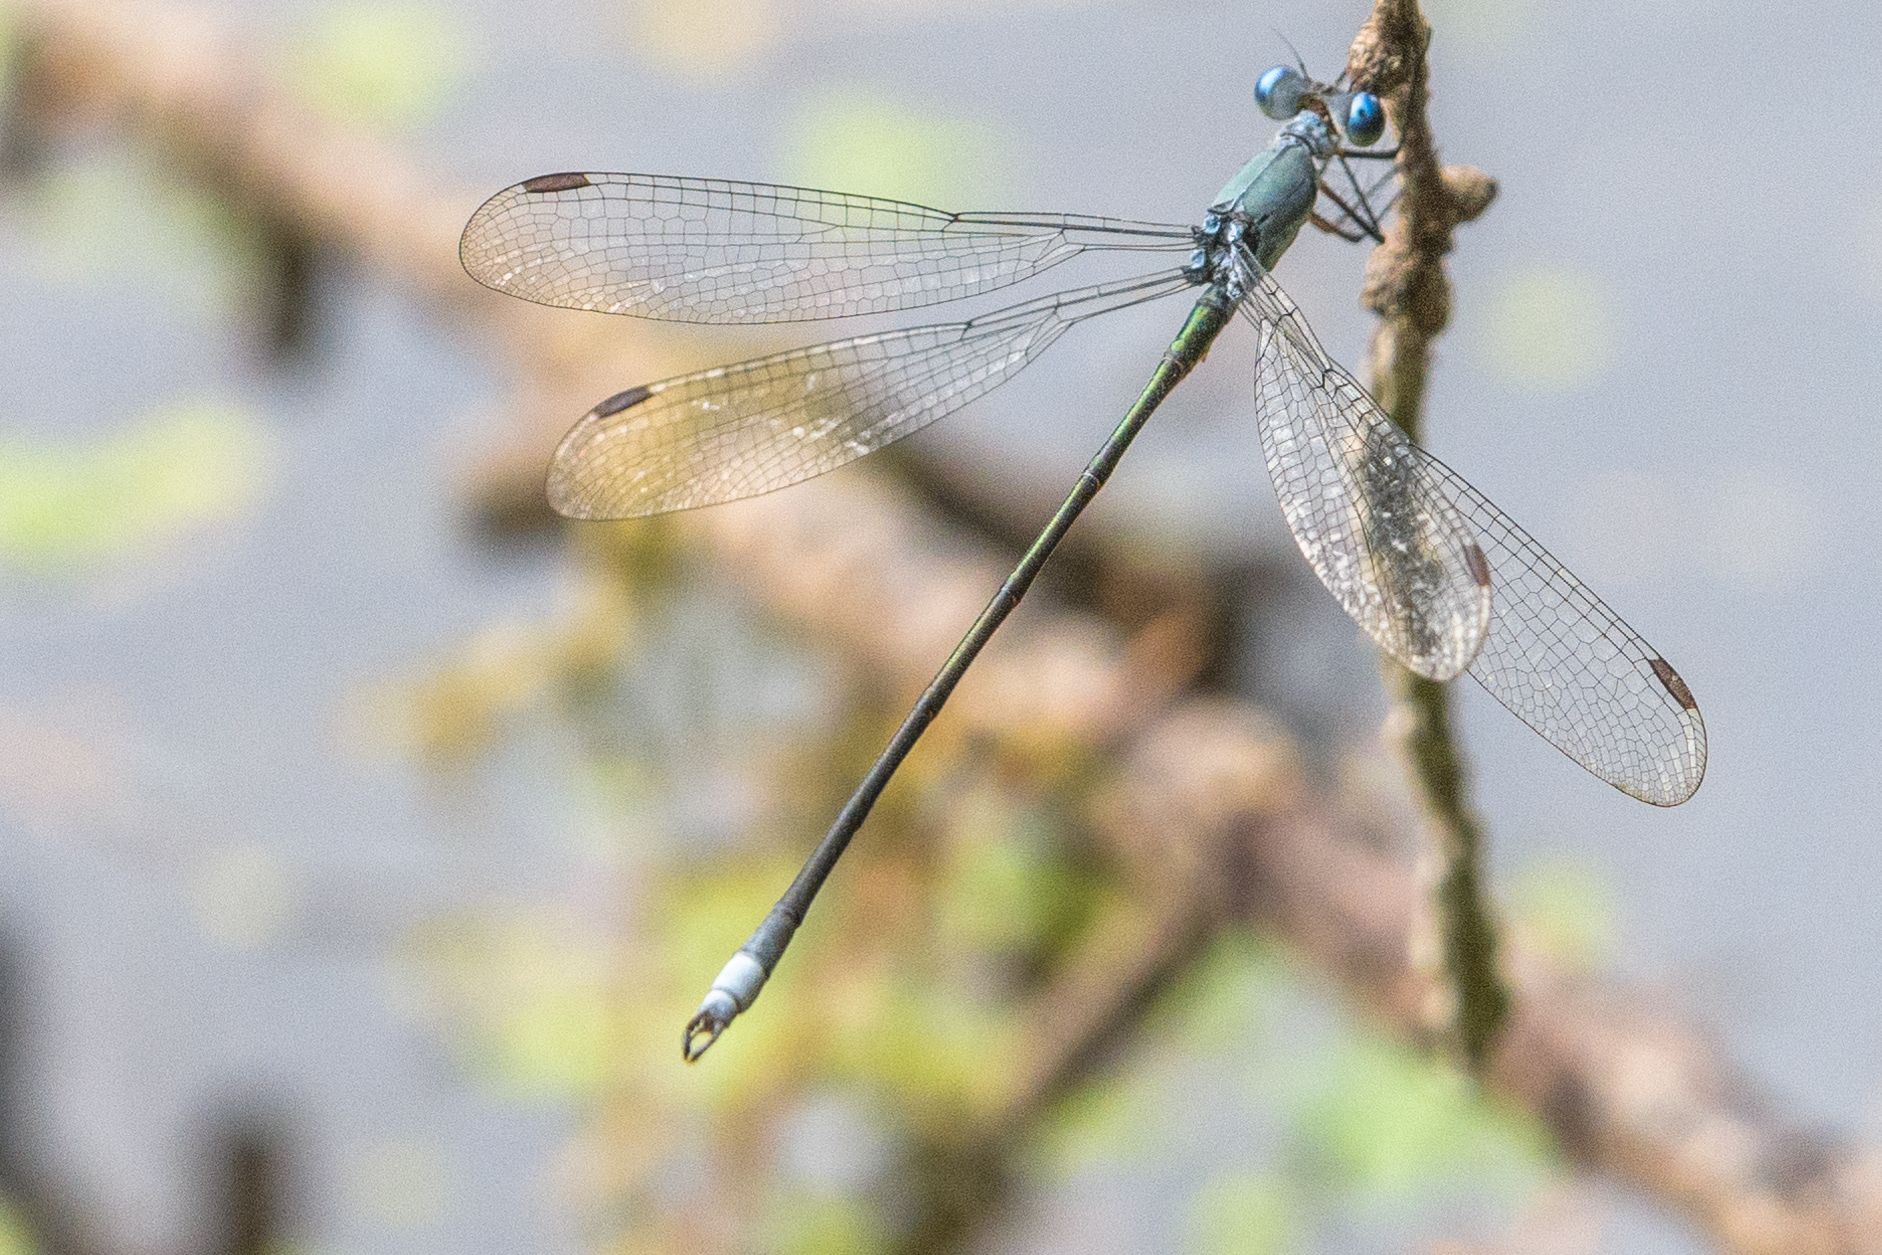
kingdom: Animalia
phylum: Arthropoda
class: Insecta
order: Odonata
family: Lestidae
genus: Lestes
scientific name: Lestes vigilax
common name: Swamp spreadwing
